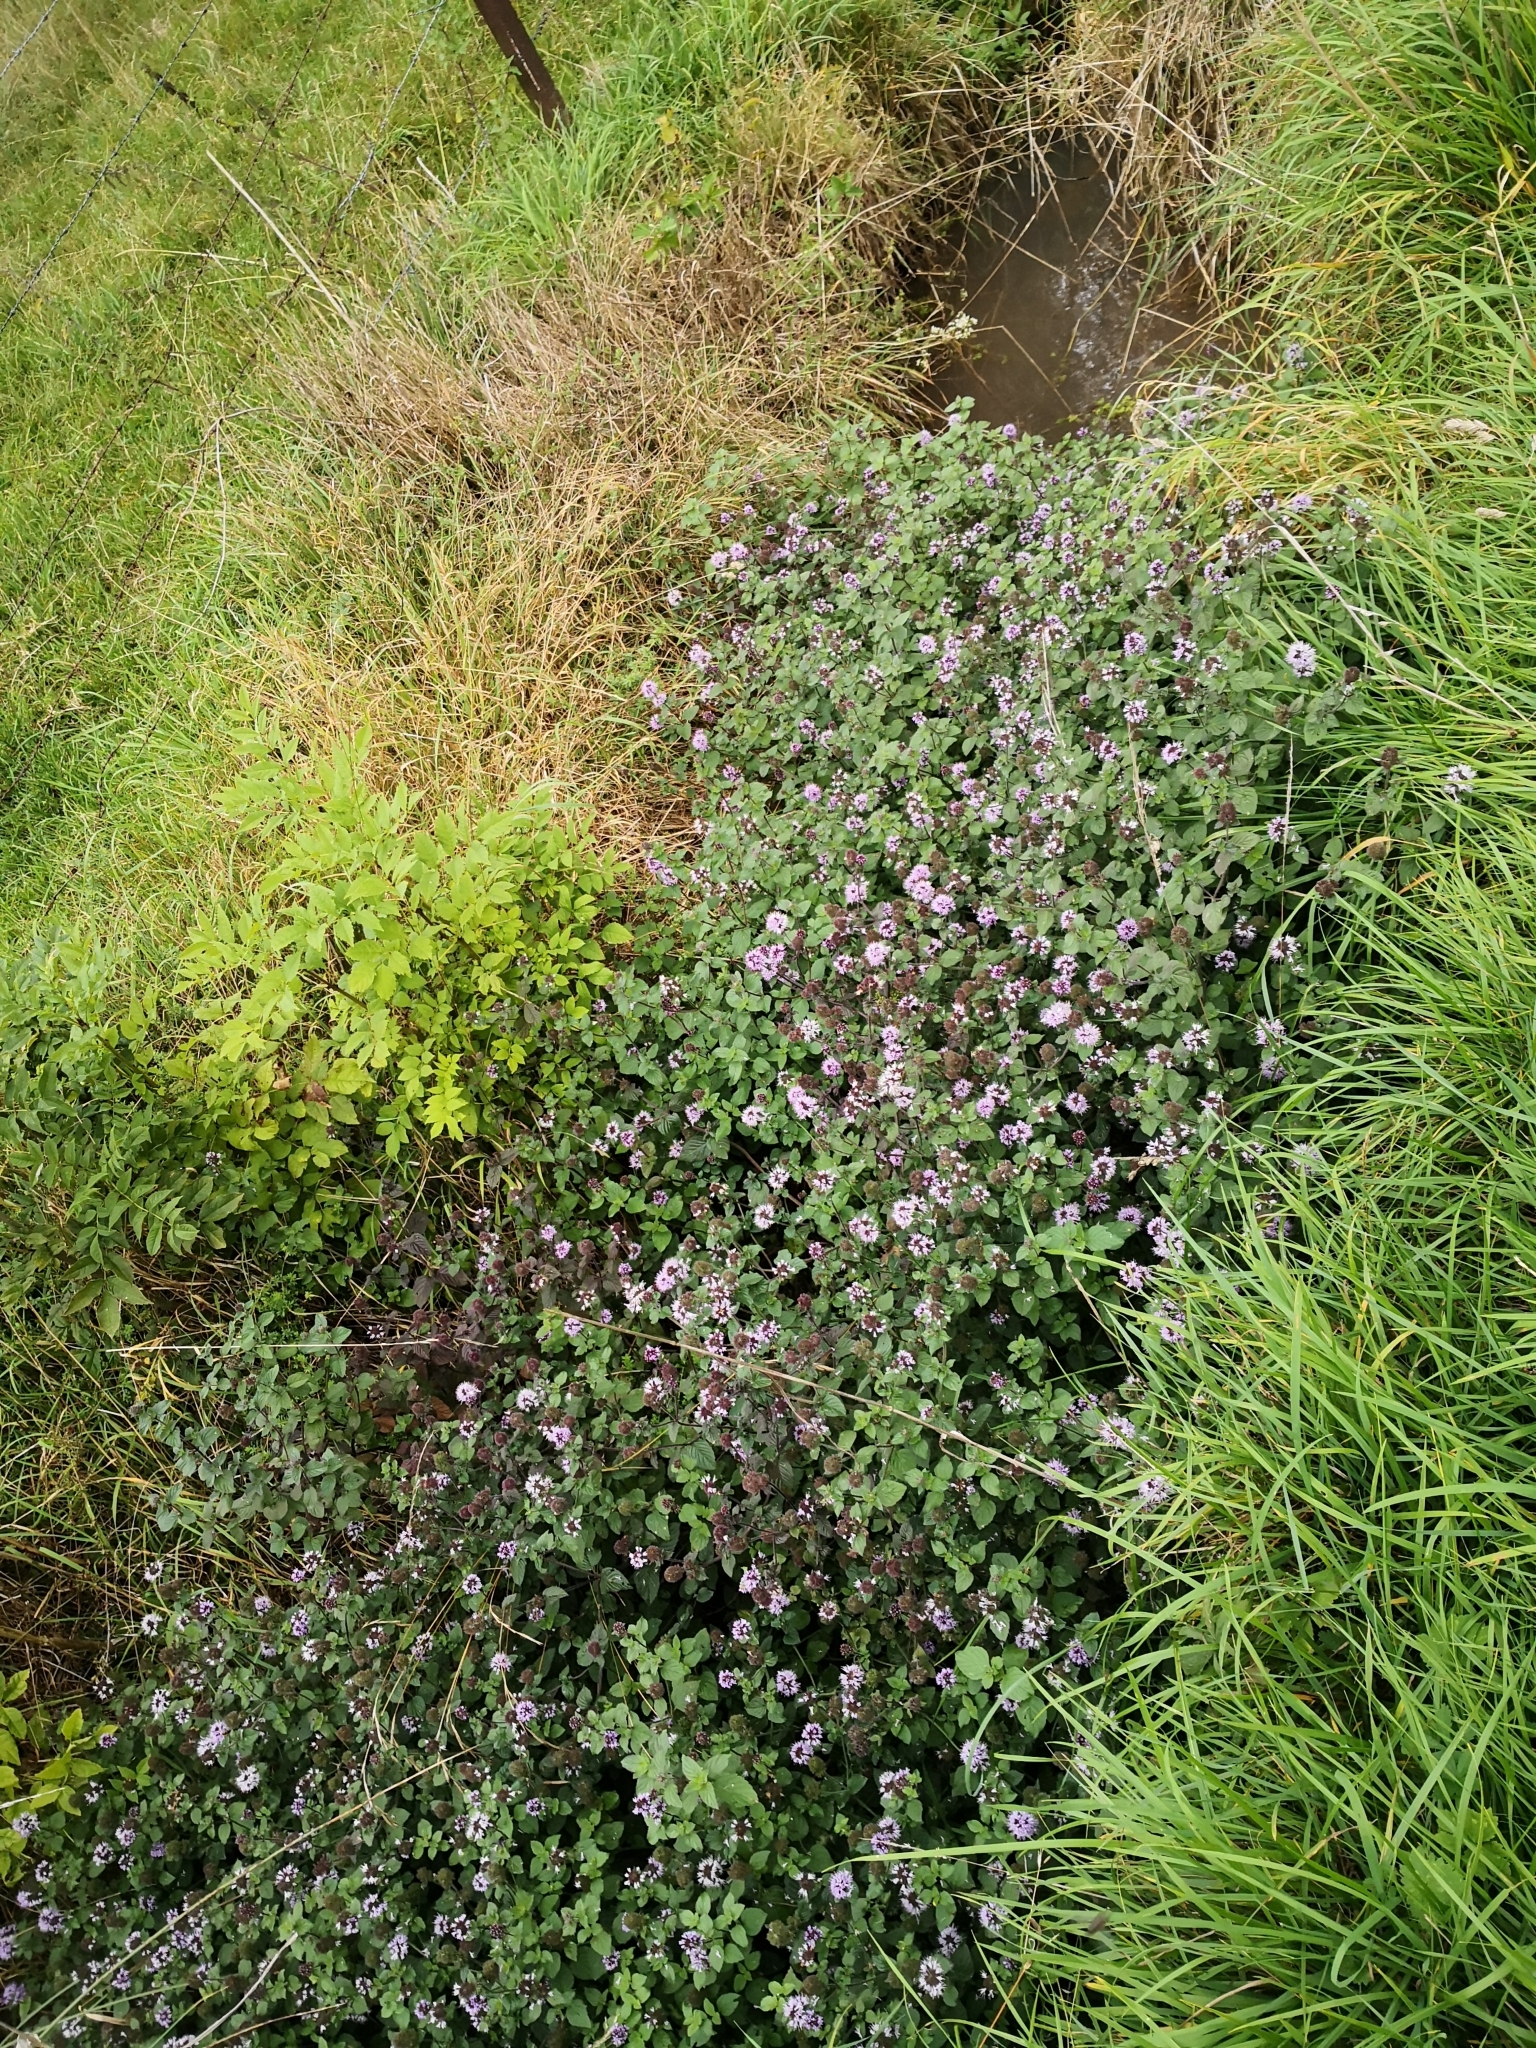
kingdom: Plantae
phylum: Tracheophyta
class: Magnoliopsida
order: Lamiales
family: Lamiaceae
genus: Mentha
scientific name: Mentha aquatica
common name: Water mint
